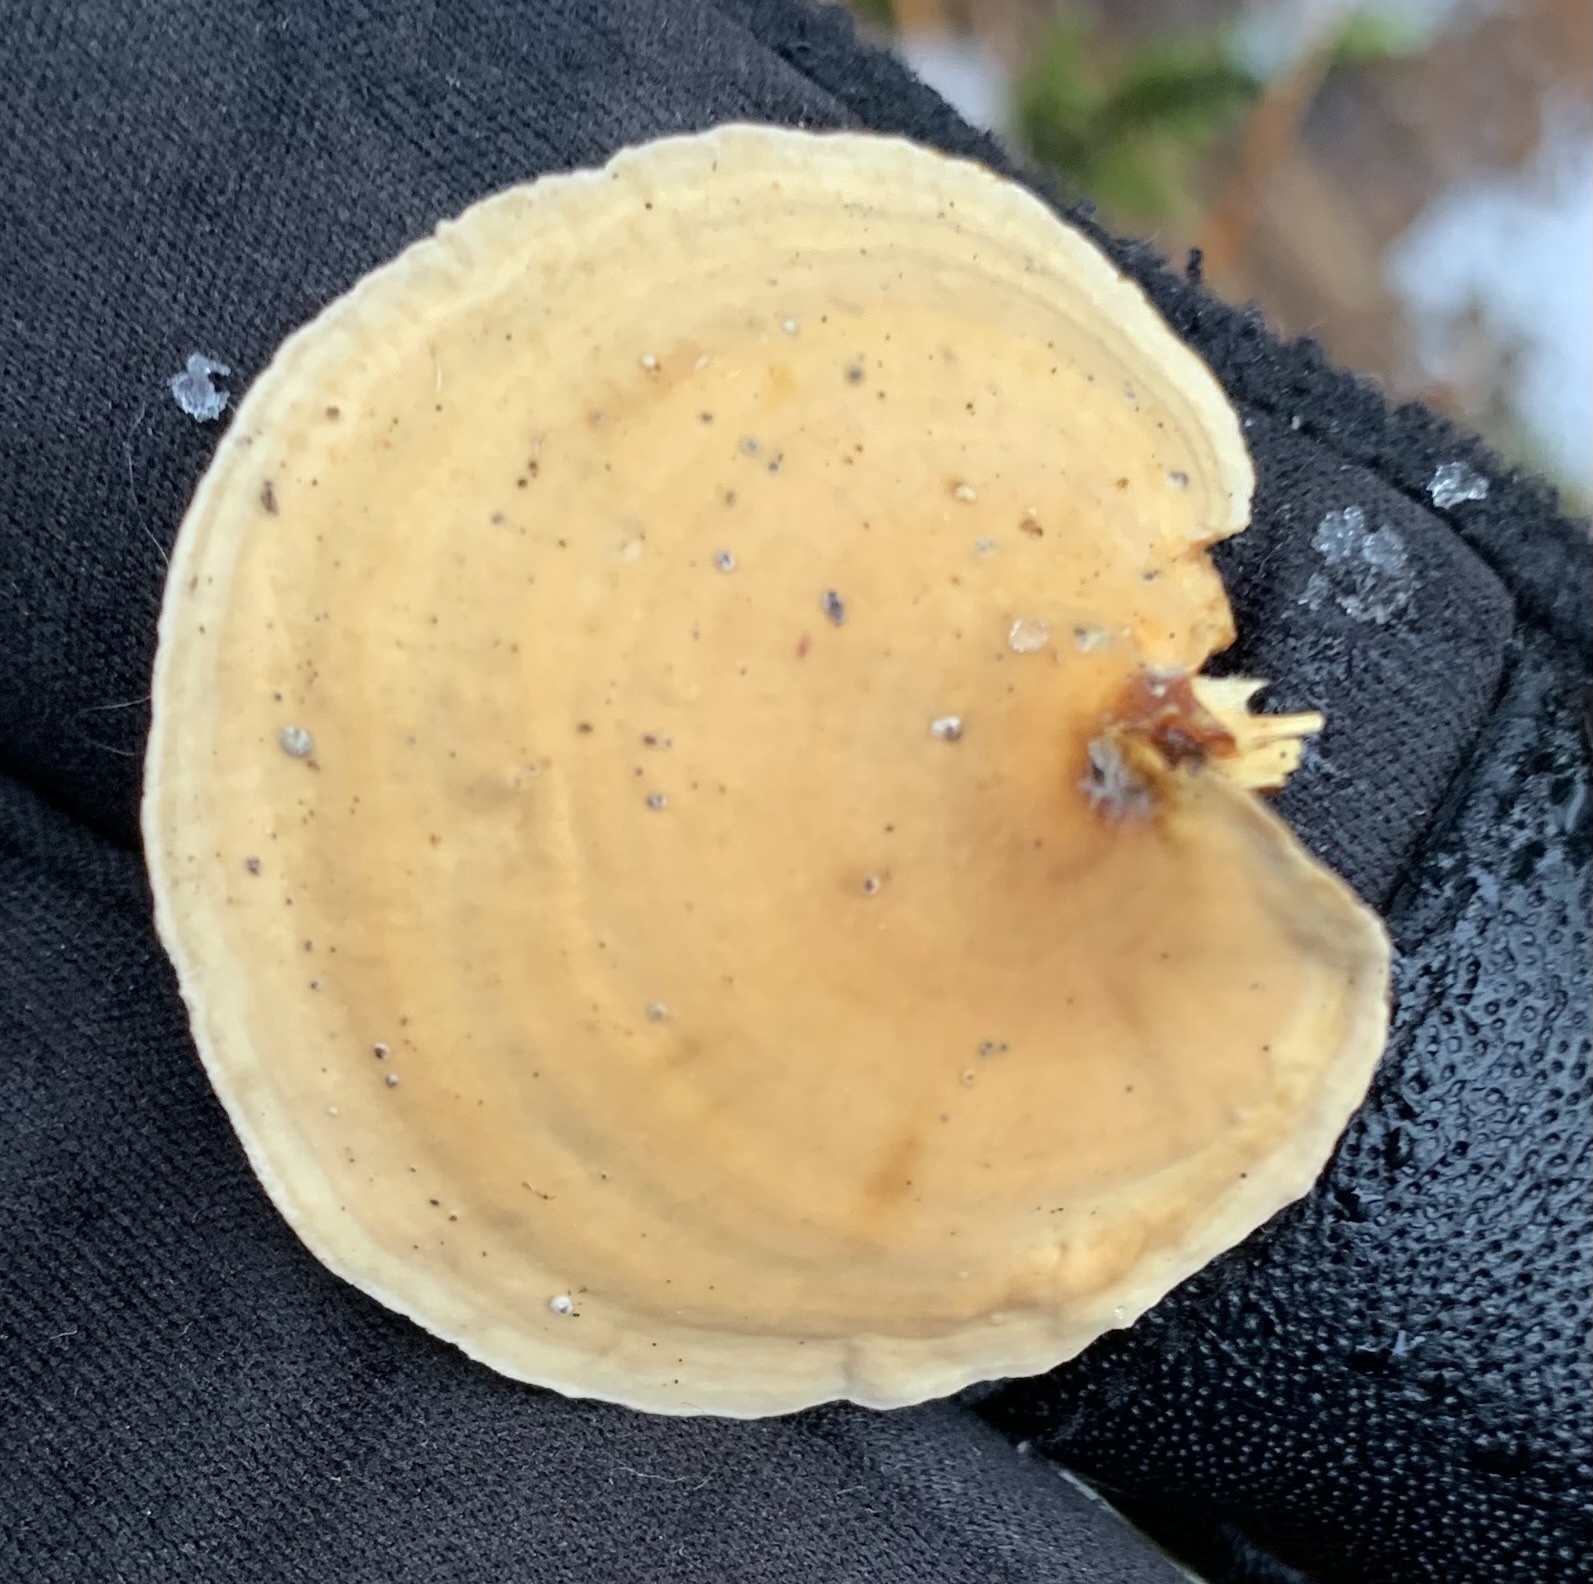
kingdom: Fungi
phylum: Basidiomycota
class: Agaricomycetes
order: Russulales
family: Stereaceae
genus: Stereum
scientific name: Stereum ostrea
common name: False turkeytail
